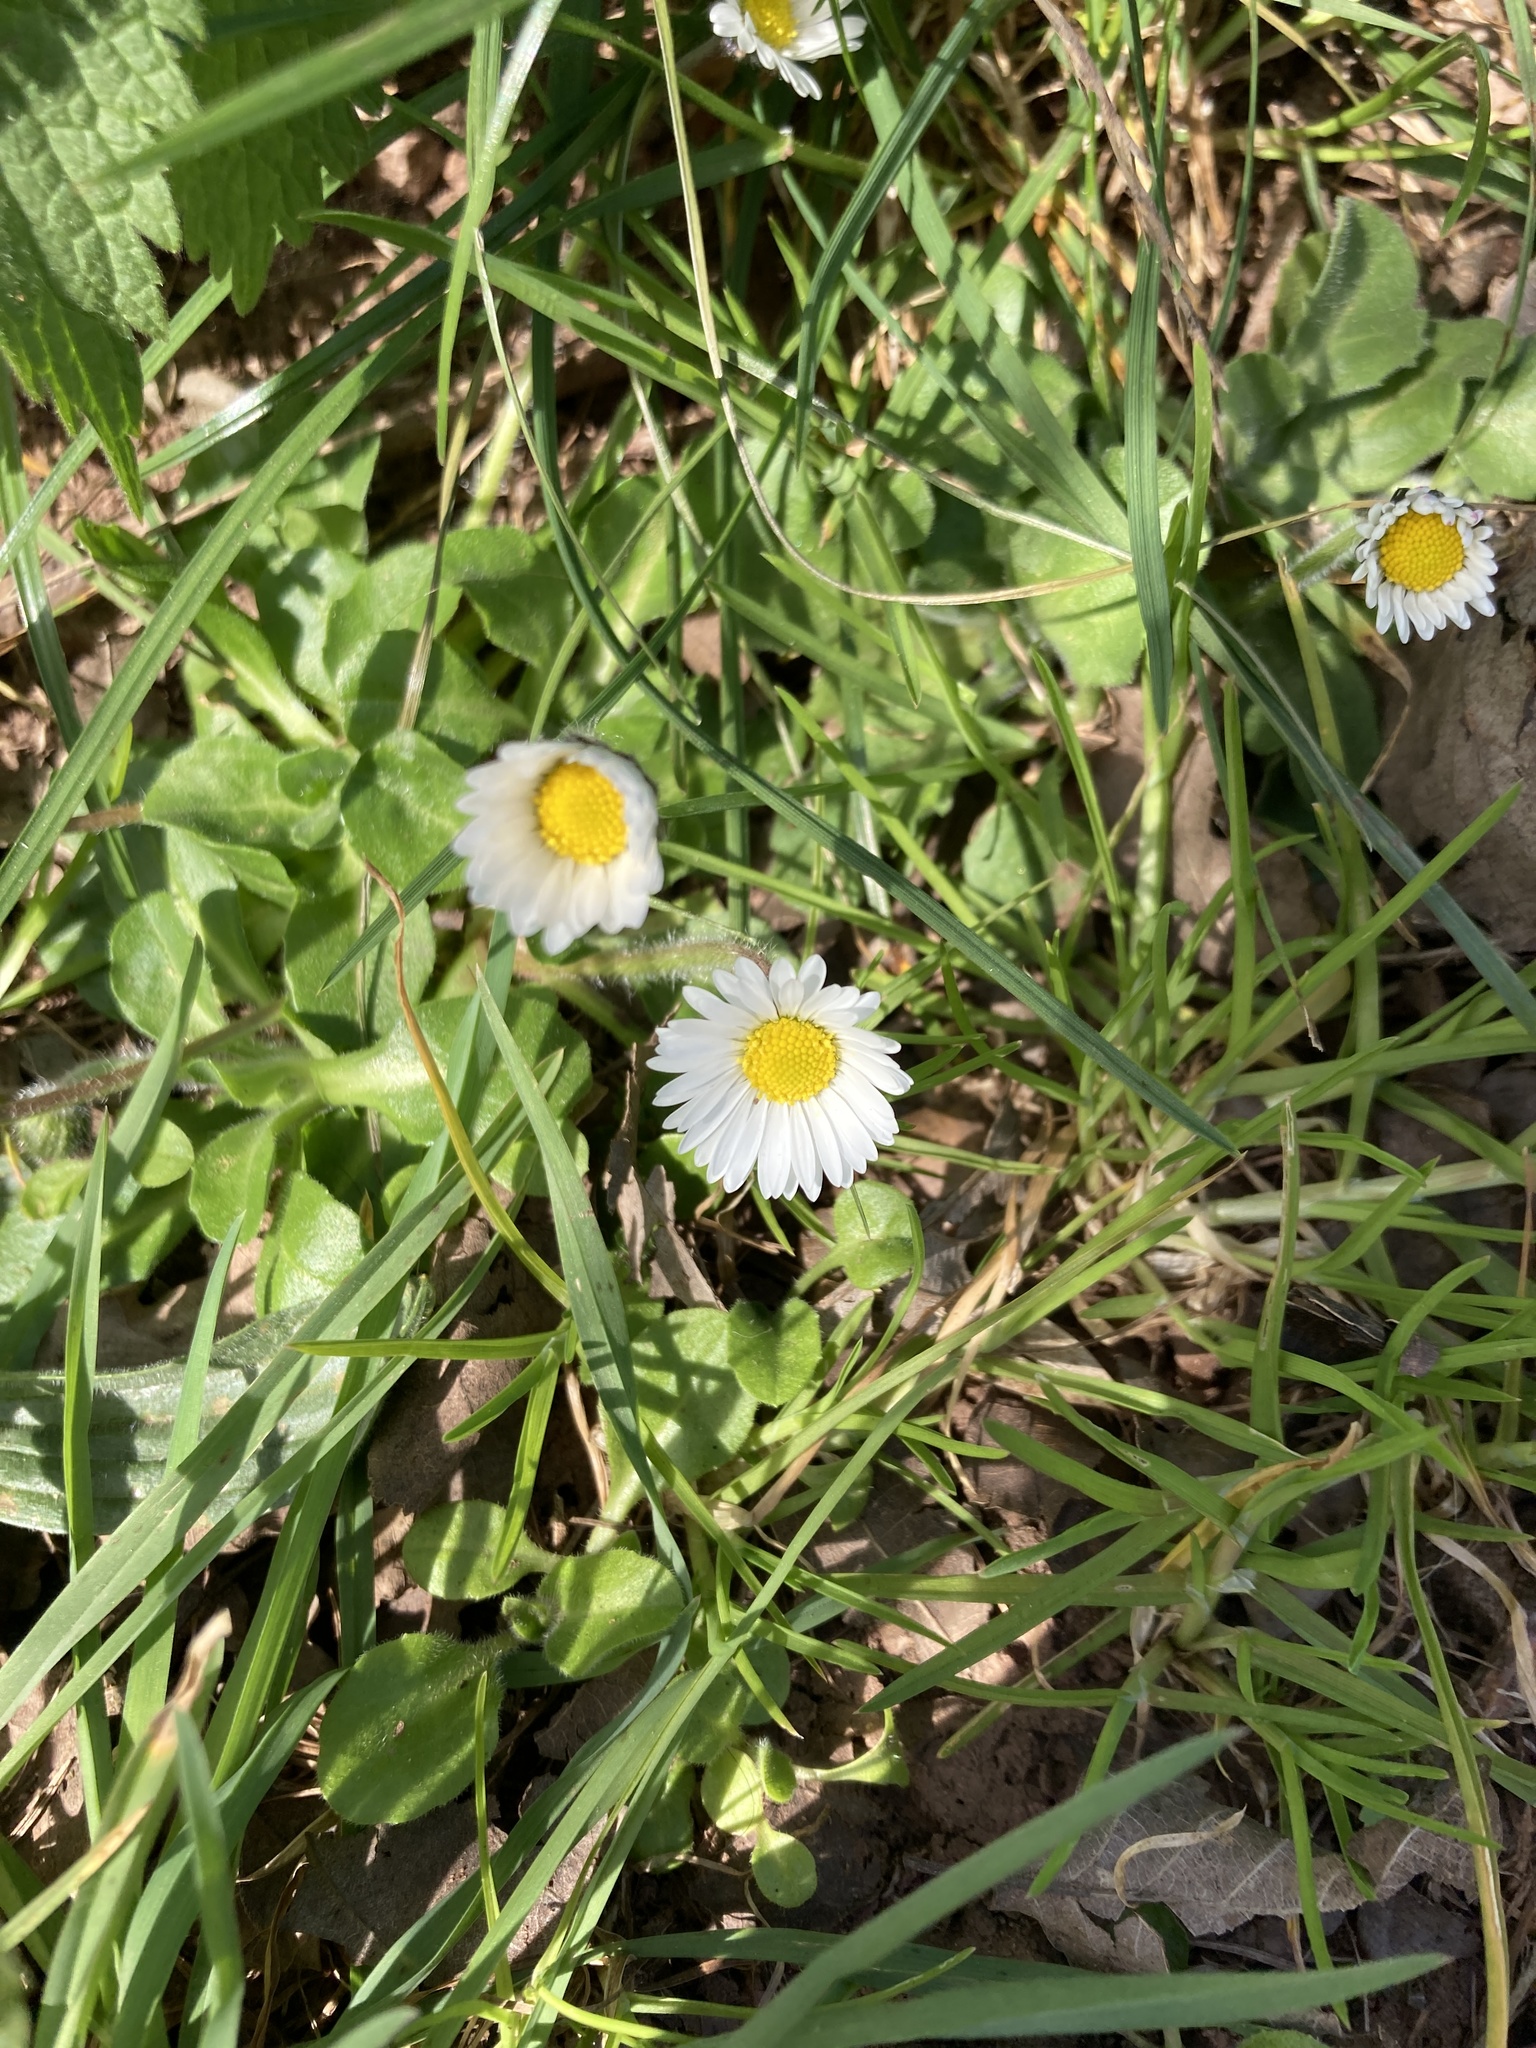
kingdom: Plantae
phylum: Tracheophyta
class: Magnoliopsida
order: Asterales
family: Asteraceae
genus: Bellis
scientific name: Bellis perennis
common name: Lawndaisy
